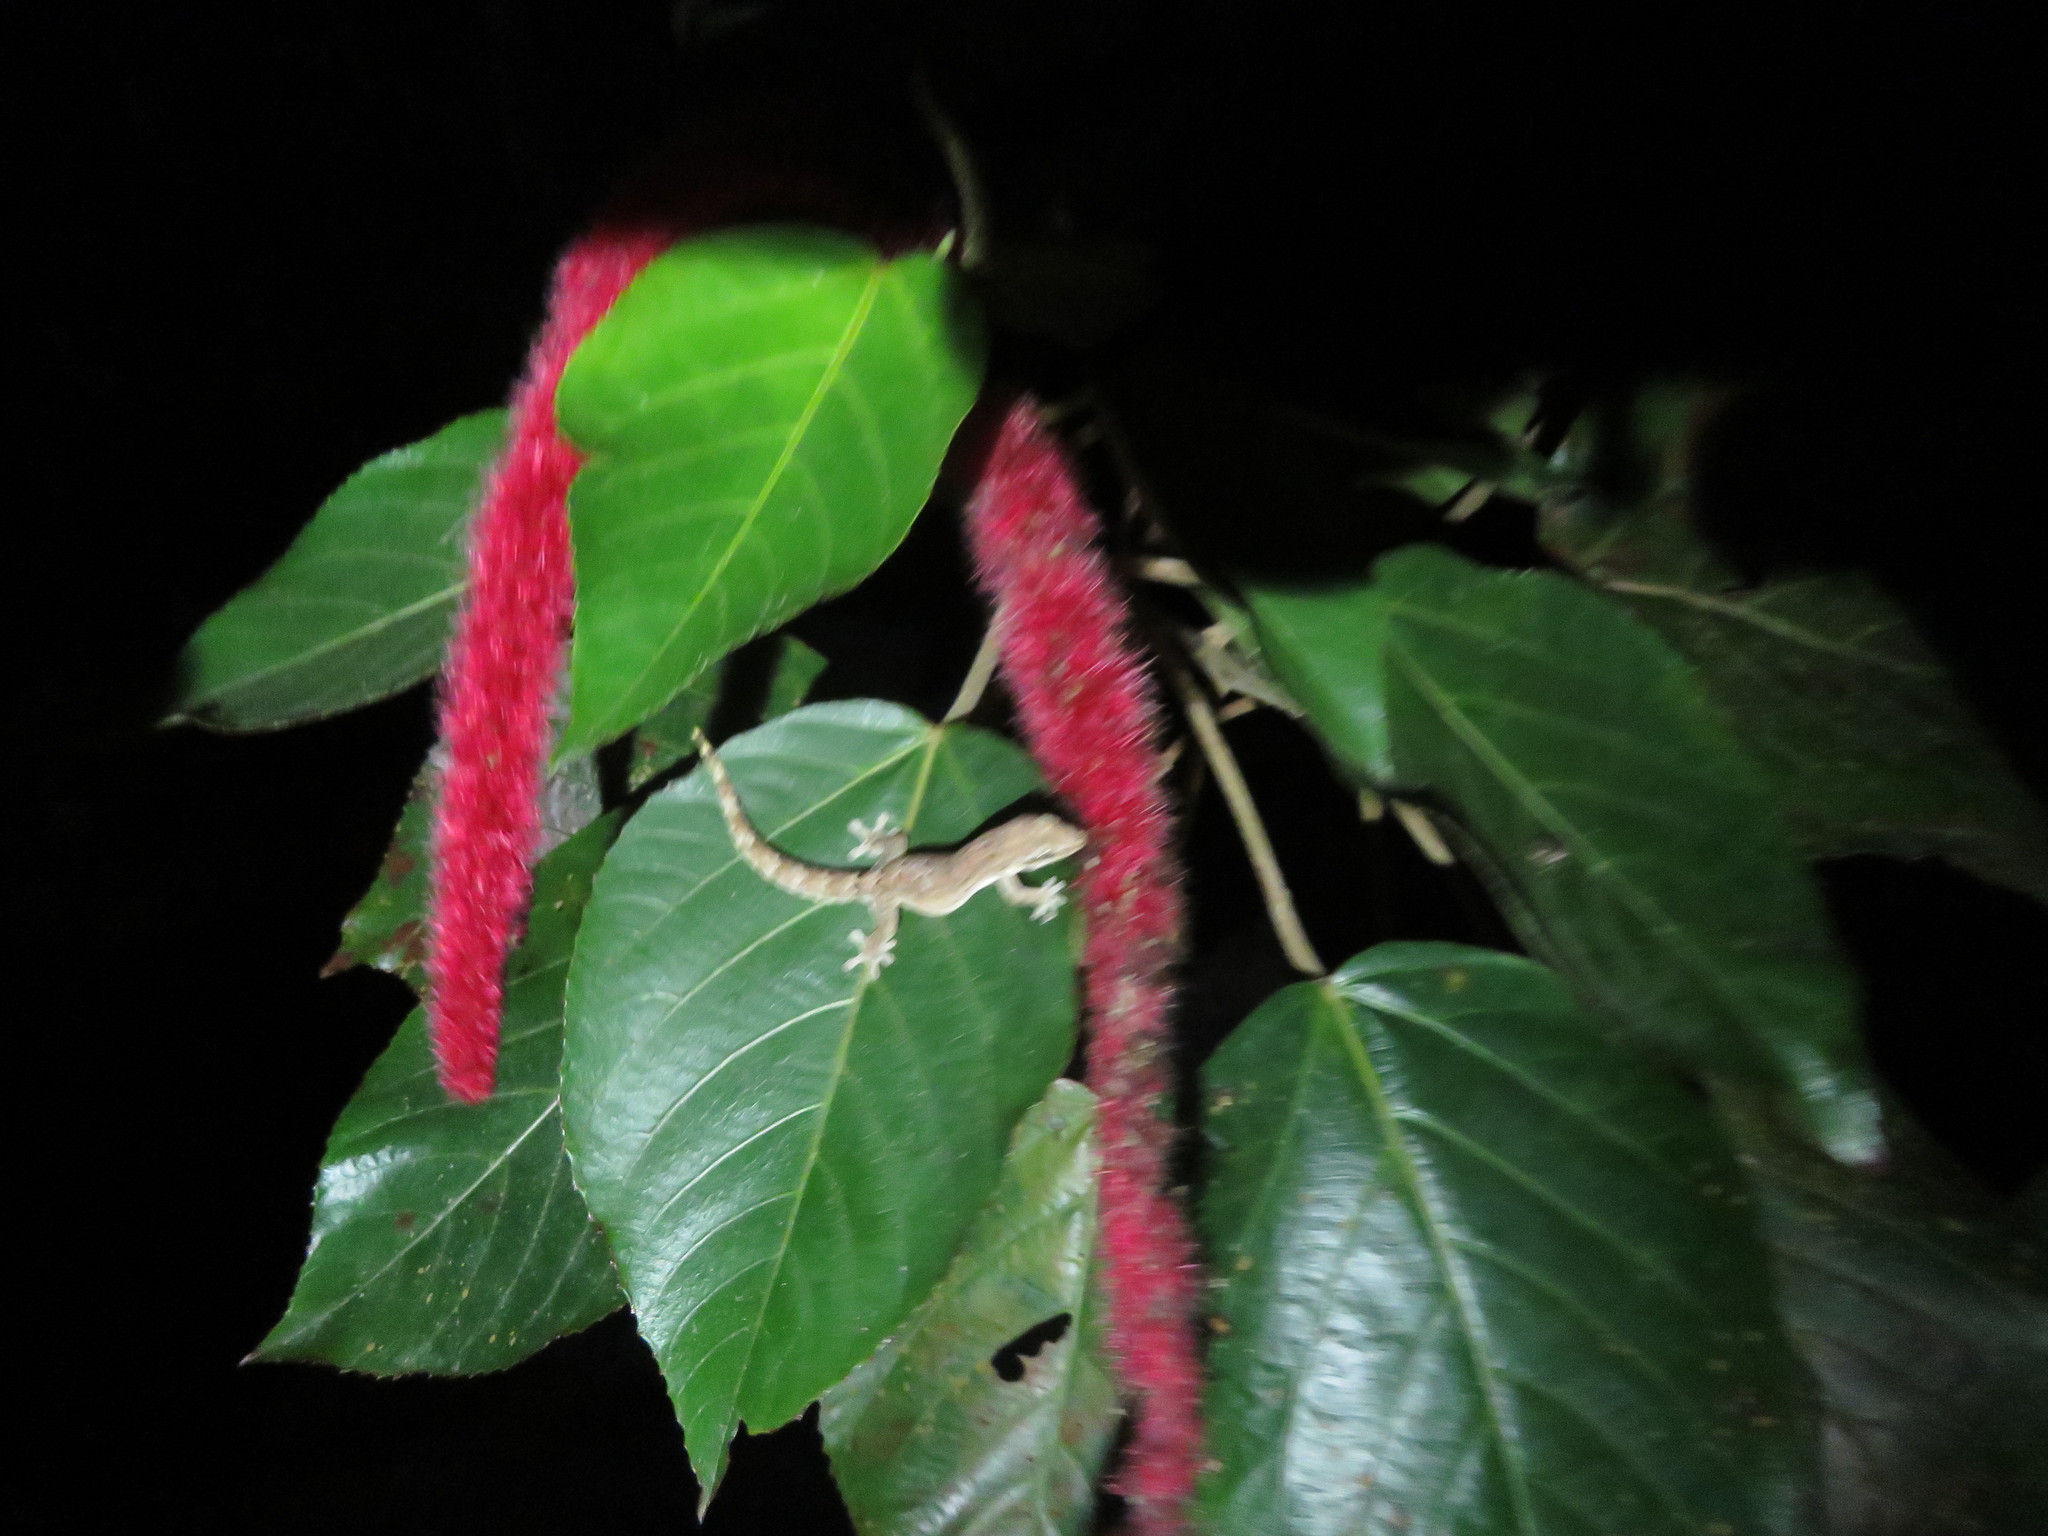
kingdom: Animalia
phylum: Chordata
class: Squamata
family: Gekkonidae
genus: Lepidodactylus
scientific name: Lepidodactylus lugubris
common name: Mourning gecko
